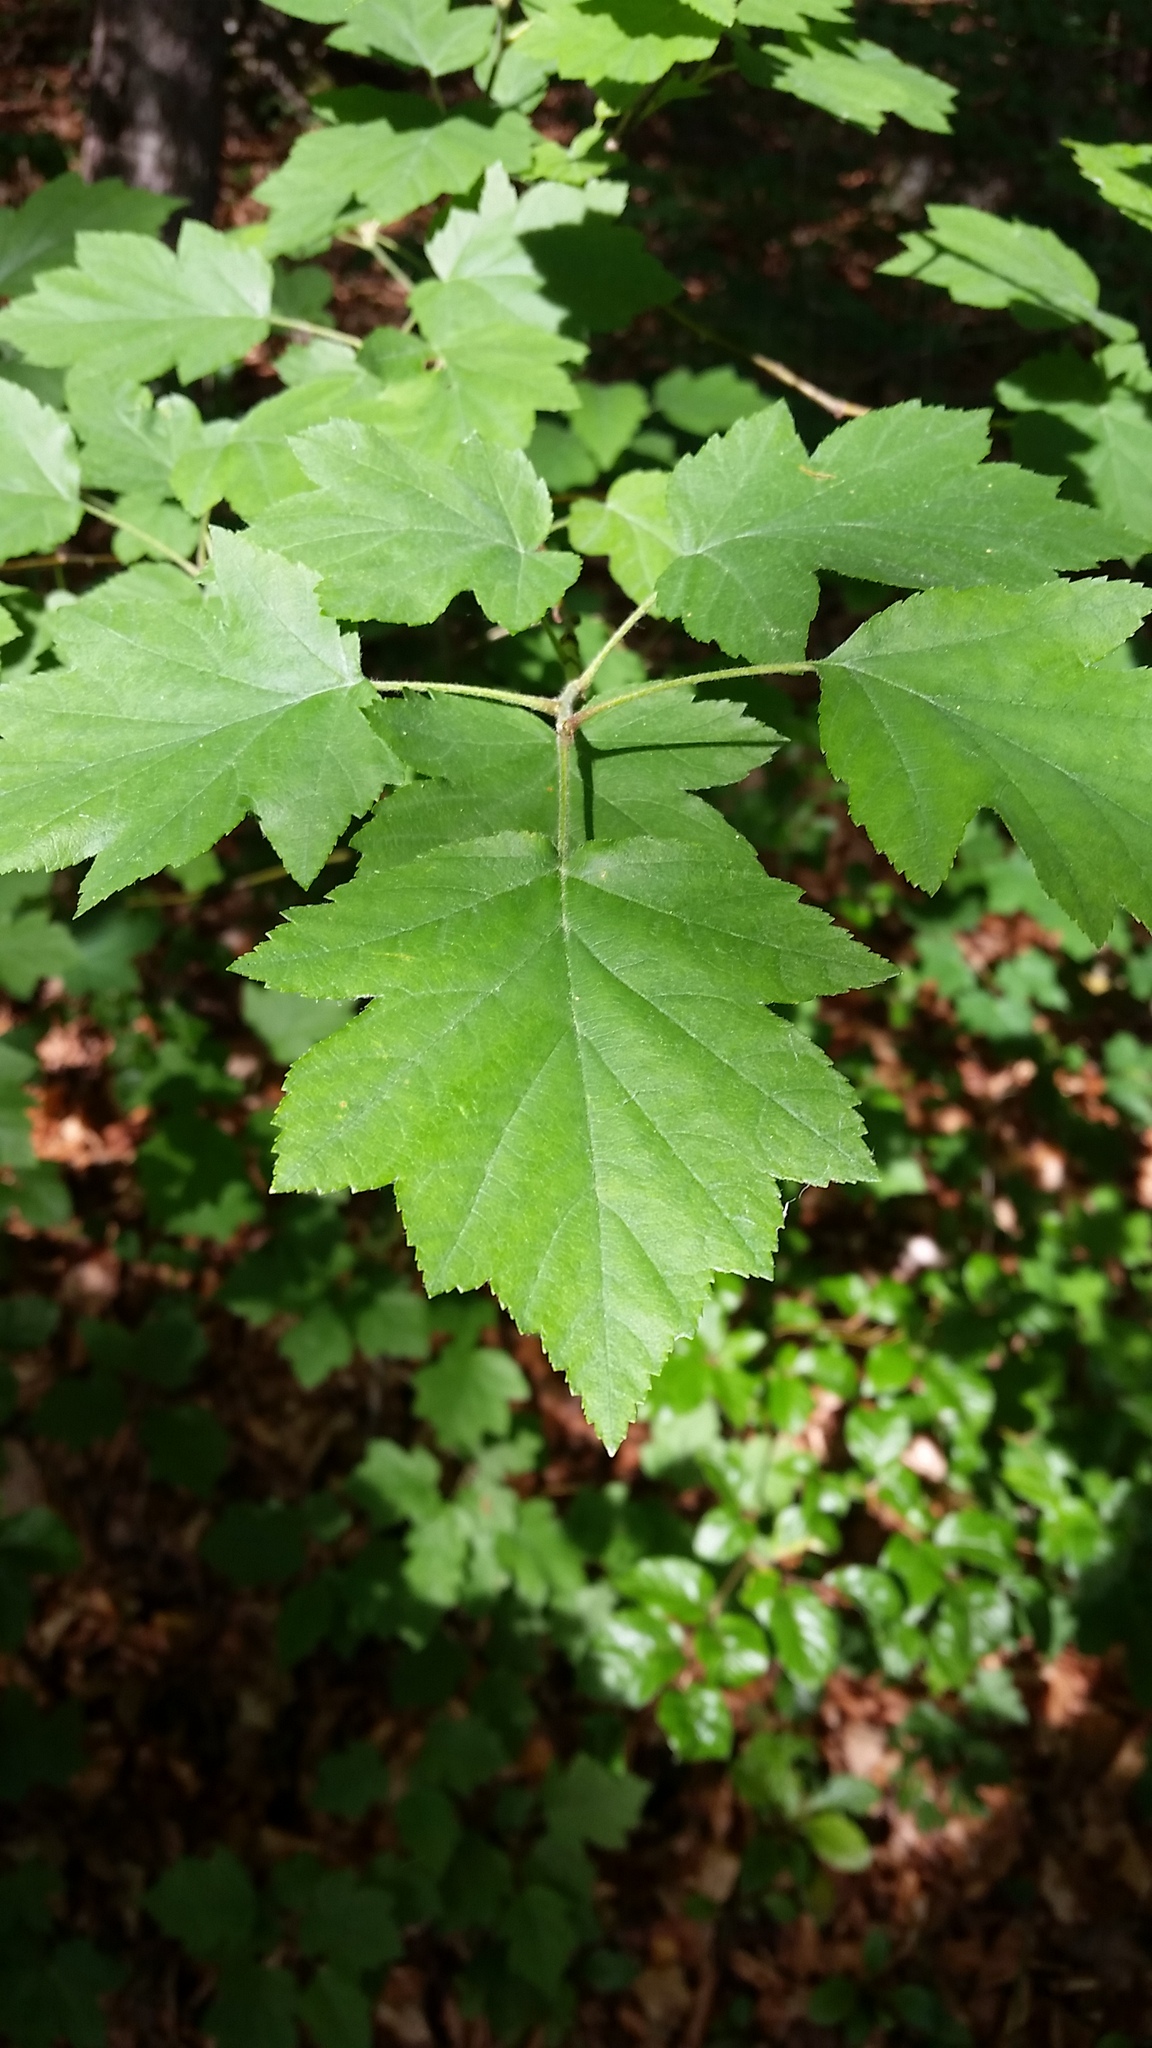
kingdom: Plantae
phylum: Tracheophyta
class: Magnoliopsida
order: Rosales
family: Rosaceae
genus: Torminalis
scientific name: Torminalis glaberrima
